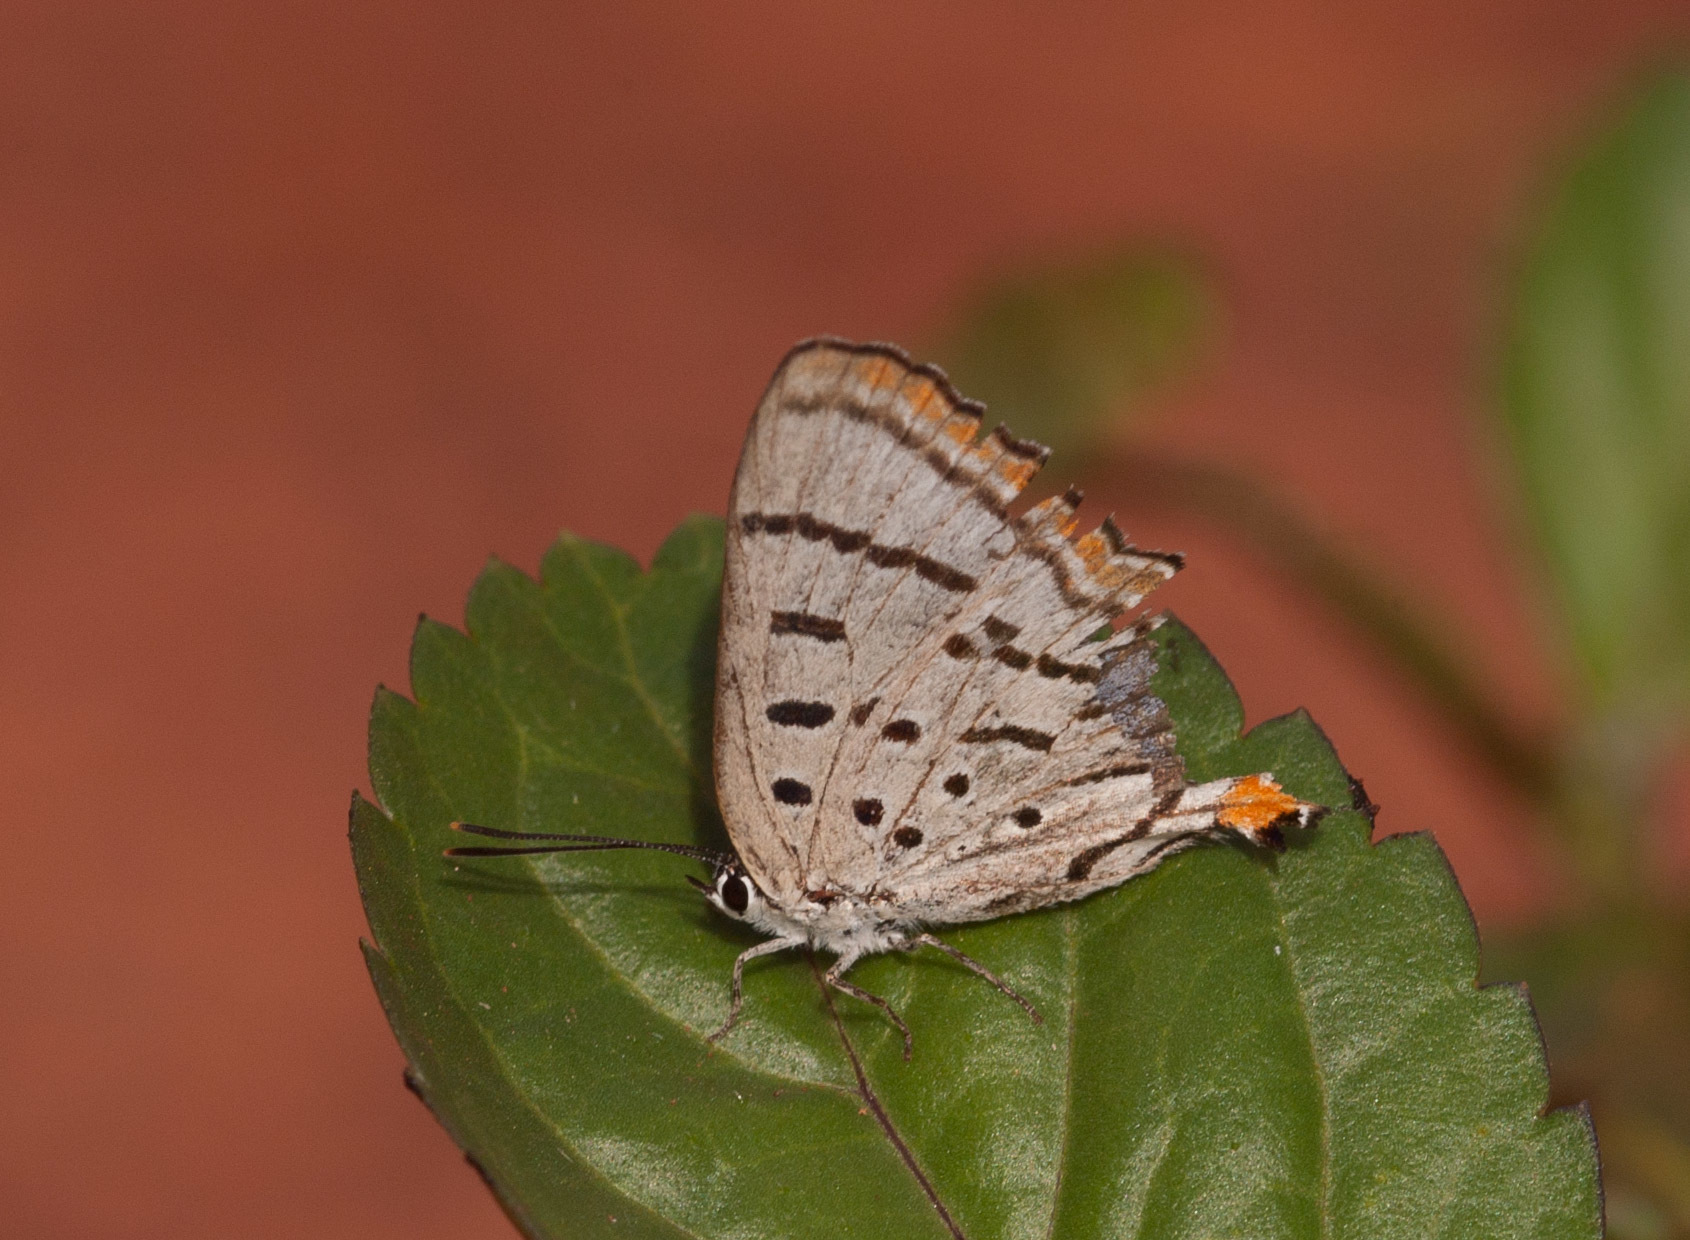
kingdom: Animalia
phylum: Arthropoda
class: Insecta
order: Lepidoptera
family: Lycaenidae
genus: Jalmenus
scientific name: Jalmenus eichhorni
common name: Northern hairstreak
